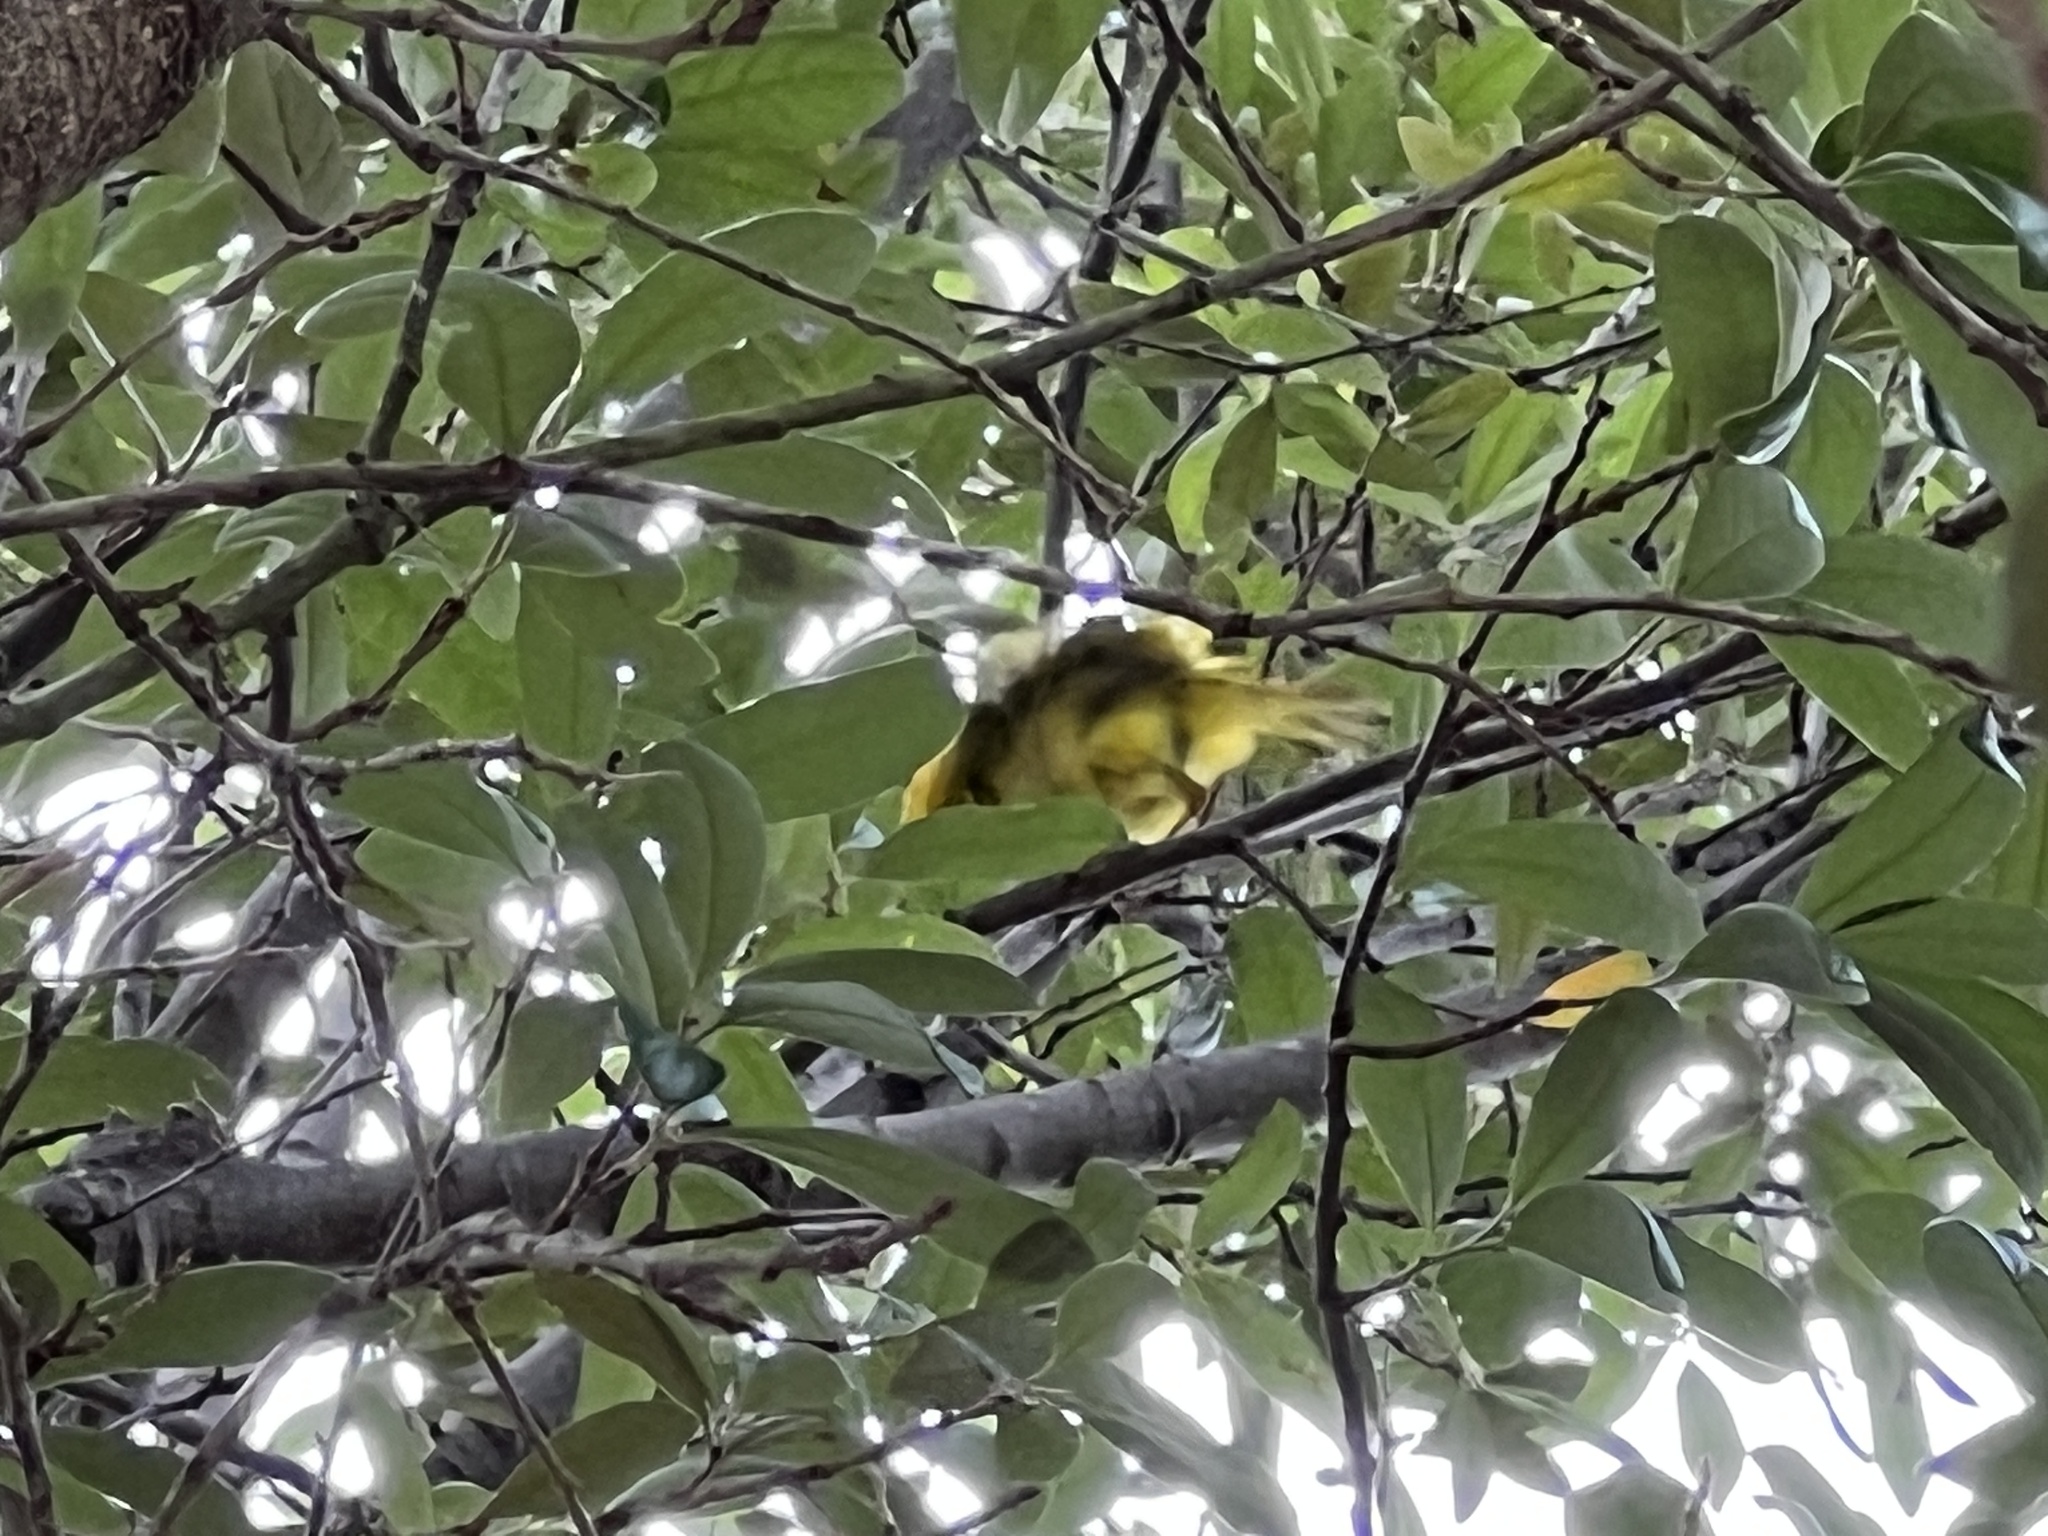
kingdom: Animalia
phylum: Chordata
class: Aves
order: Passeriformes
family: Parulidae
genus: Setophaga
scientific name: Setophaga petechia
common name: Yellow warbler
